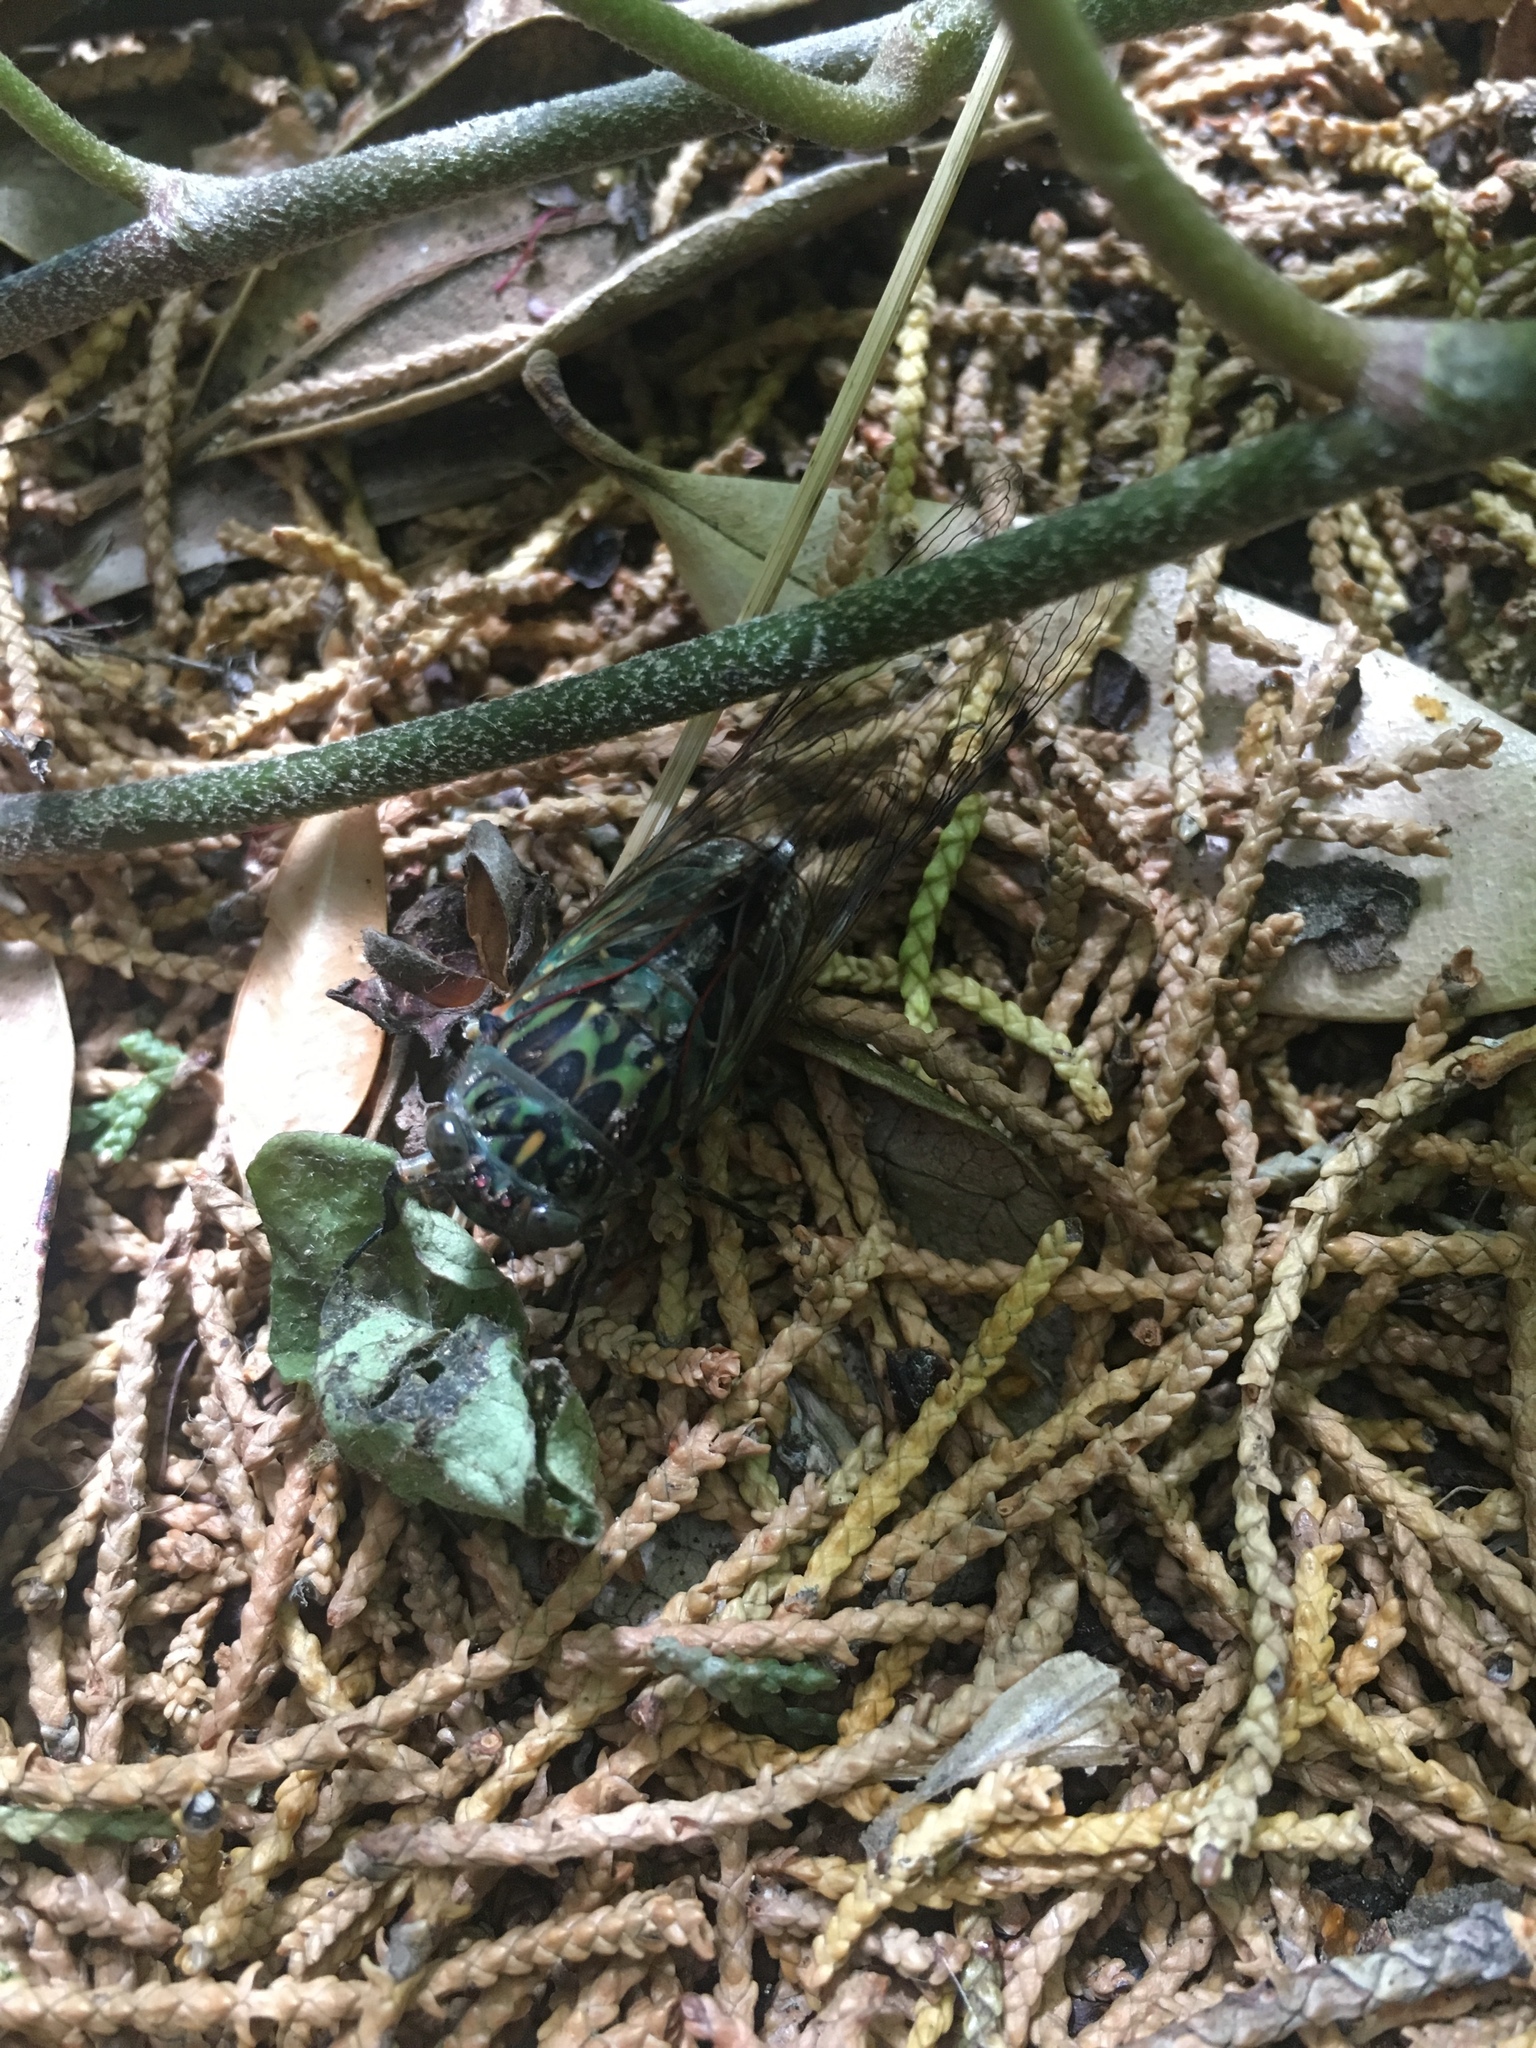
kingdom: Animalia
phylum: Arthropoda
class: Insecta
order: Hemiptera
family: Cicadidae
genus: Amphipsalta
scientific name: Amphipsalta zelandica
